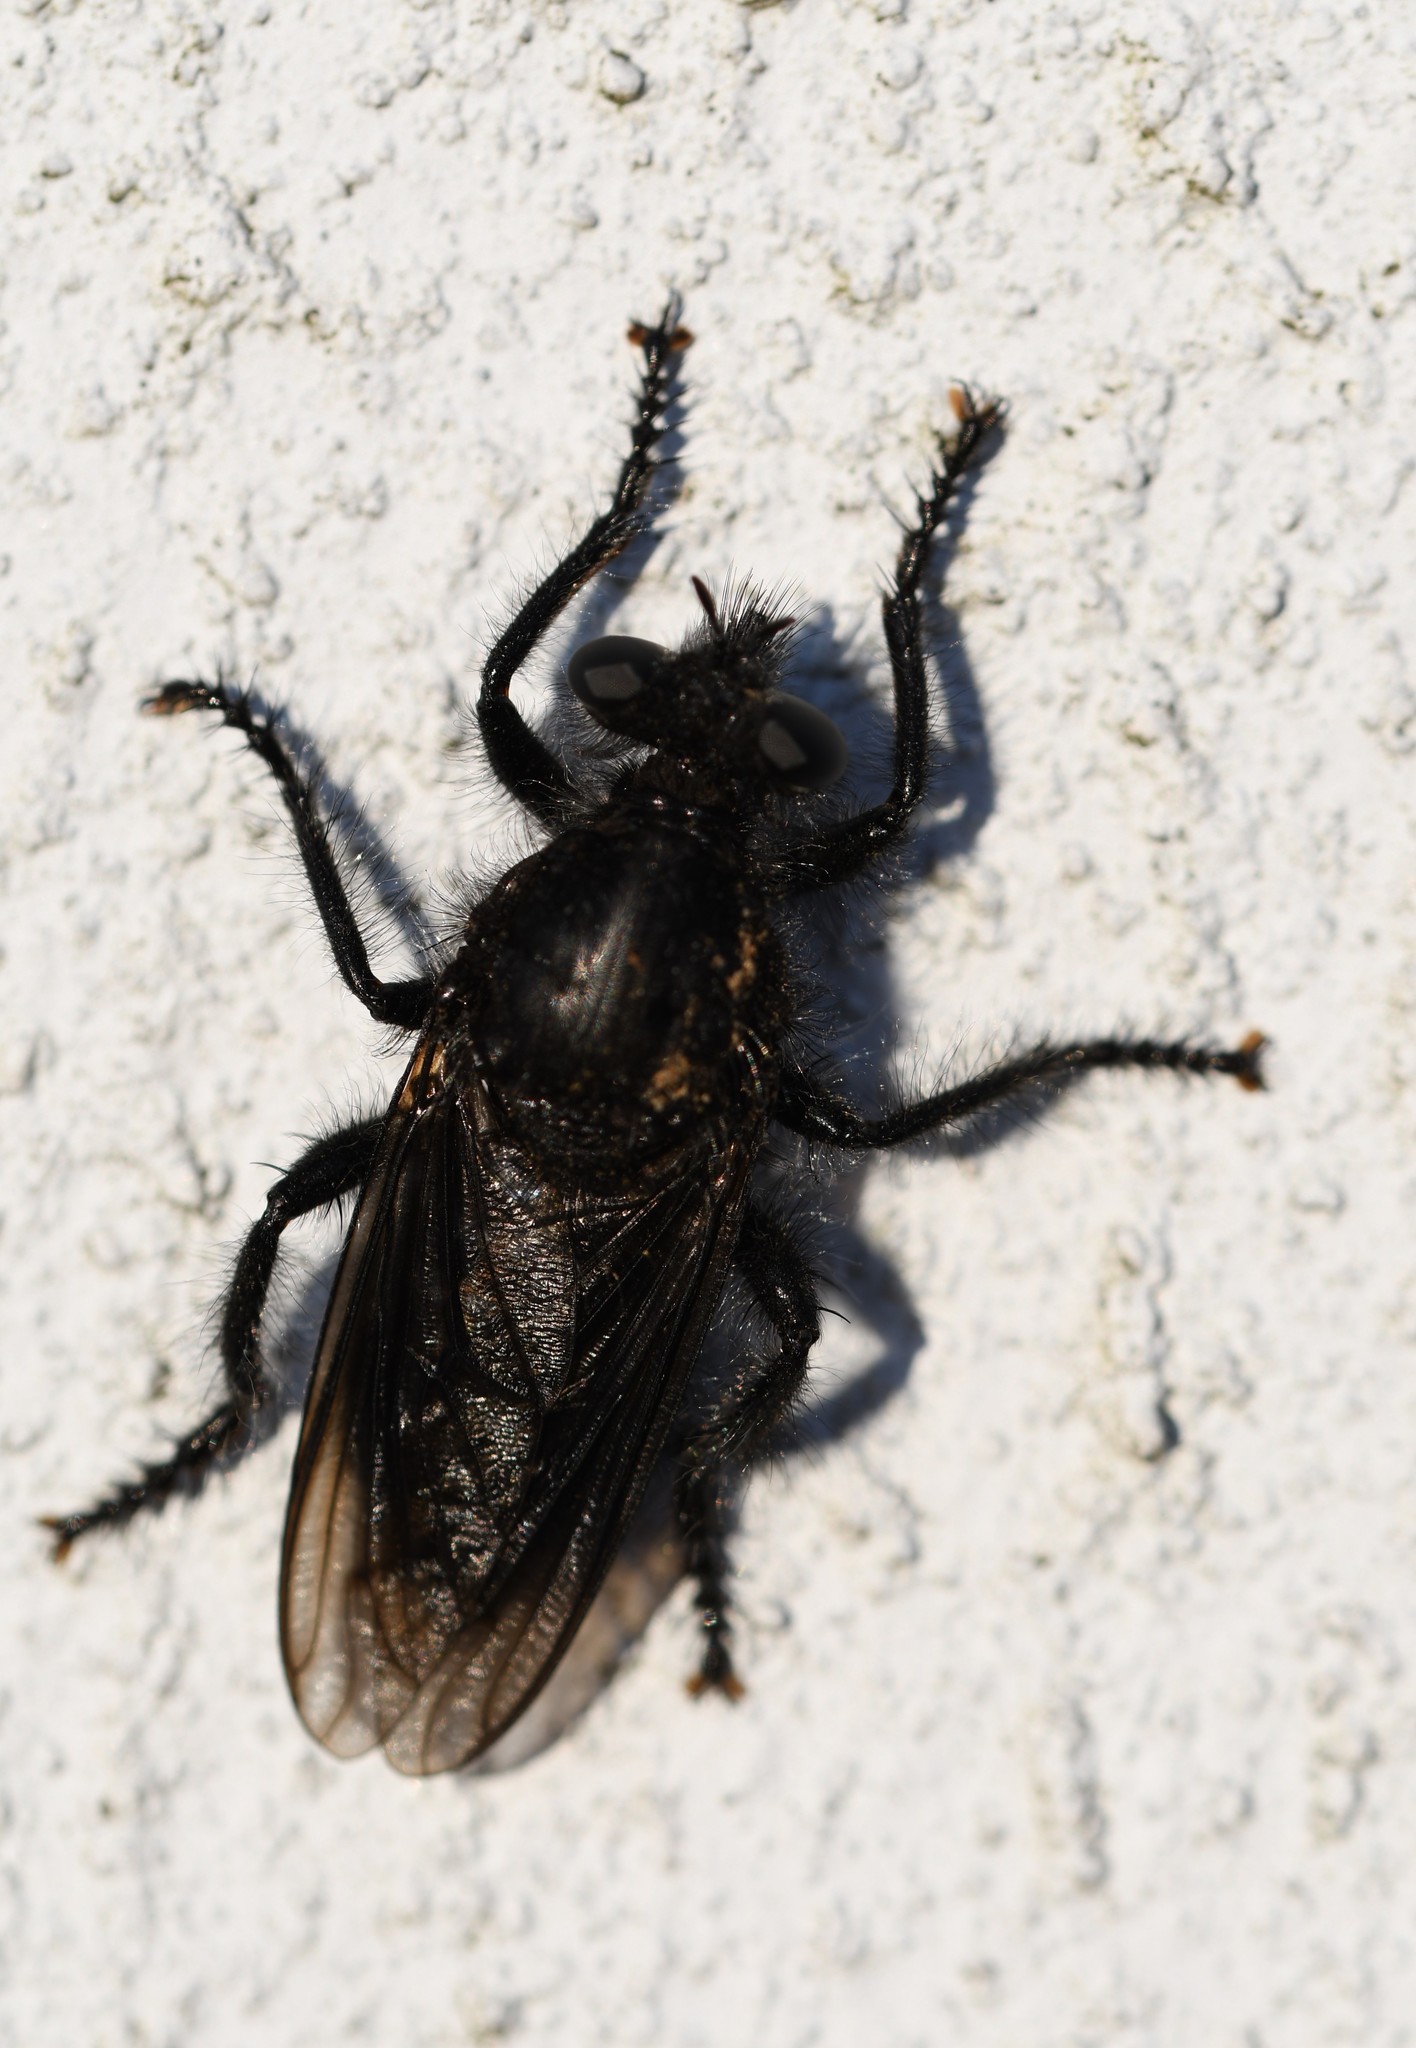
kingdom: Animalia
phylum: Arthropoda
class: Insecta
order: Diptera
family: Asilidae
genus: Andrenosoma
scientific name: Andrenosoma atrum
